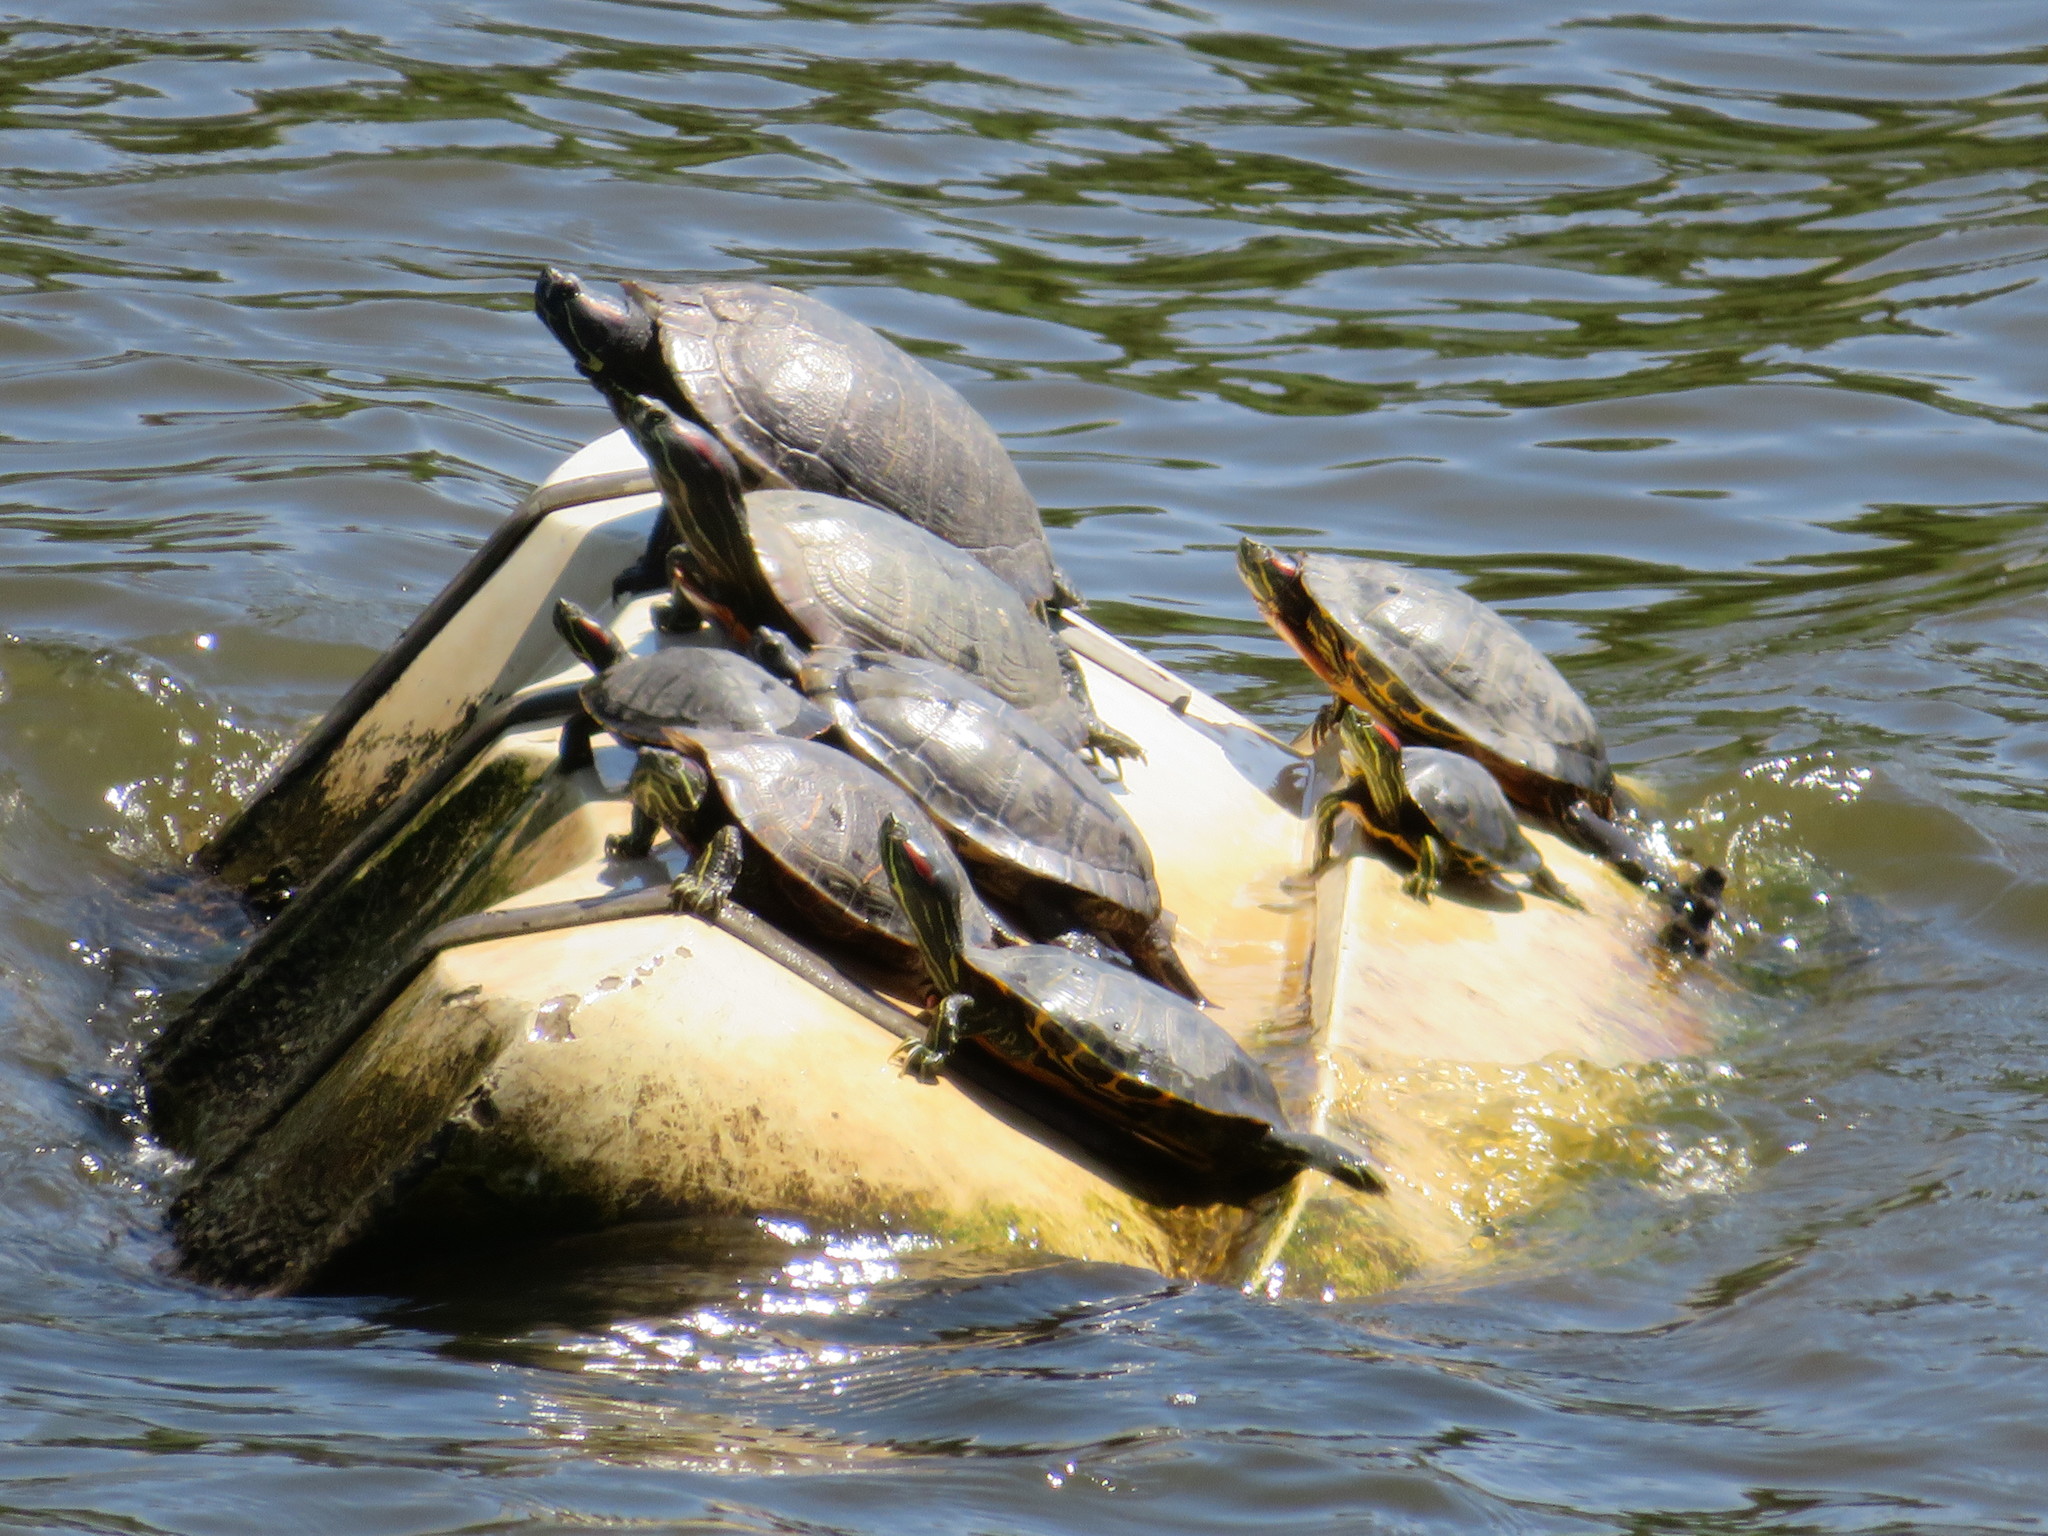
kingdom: Animalia
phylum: Chordata
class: Testudines
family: Emydidae
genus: Trachemys
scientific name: Trachemys scripta
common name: Slider
